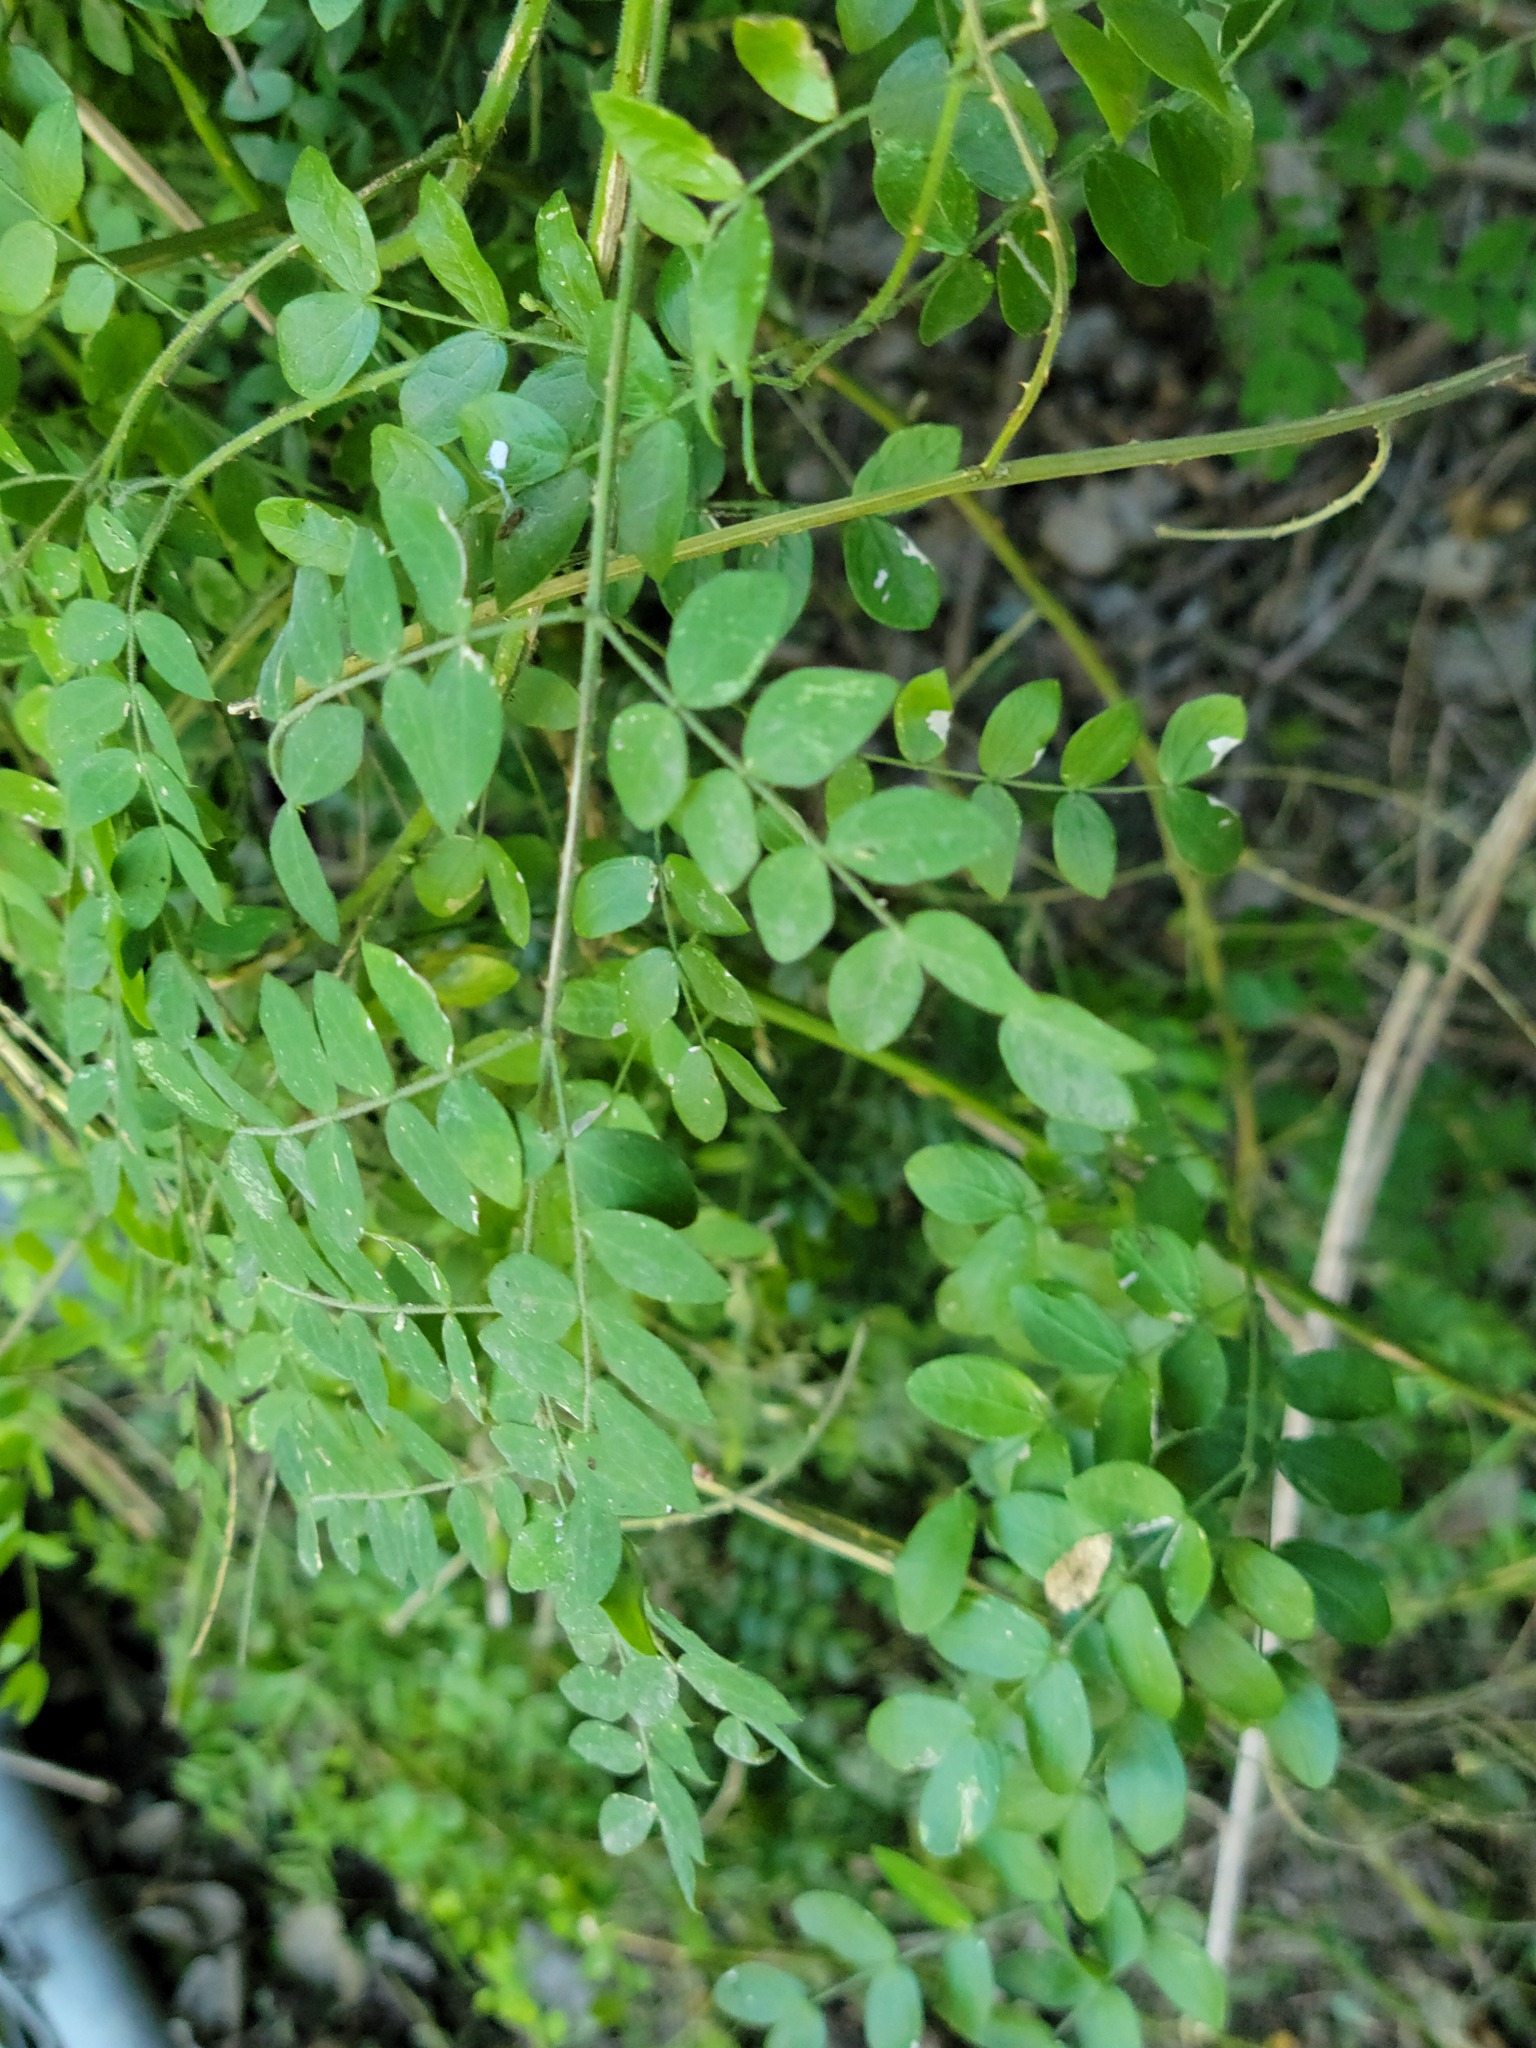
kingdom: Plantae
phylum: Tracheophyta
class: Magnoliopsida
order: Fabales
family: Fabaceae
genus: Mimosa
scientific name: Mimosa malacophylla
